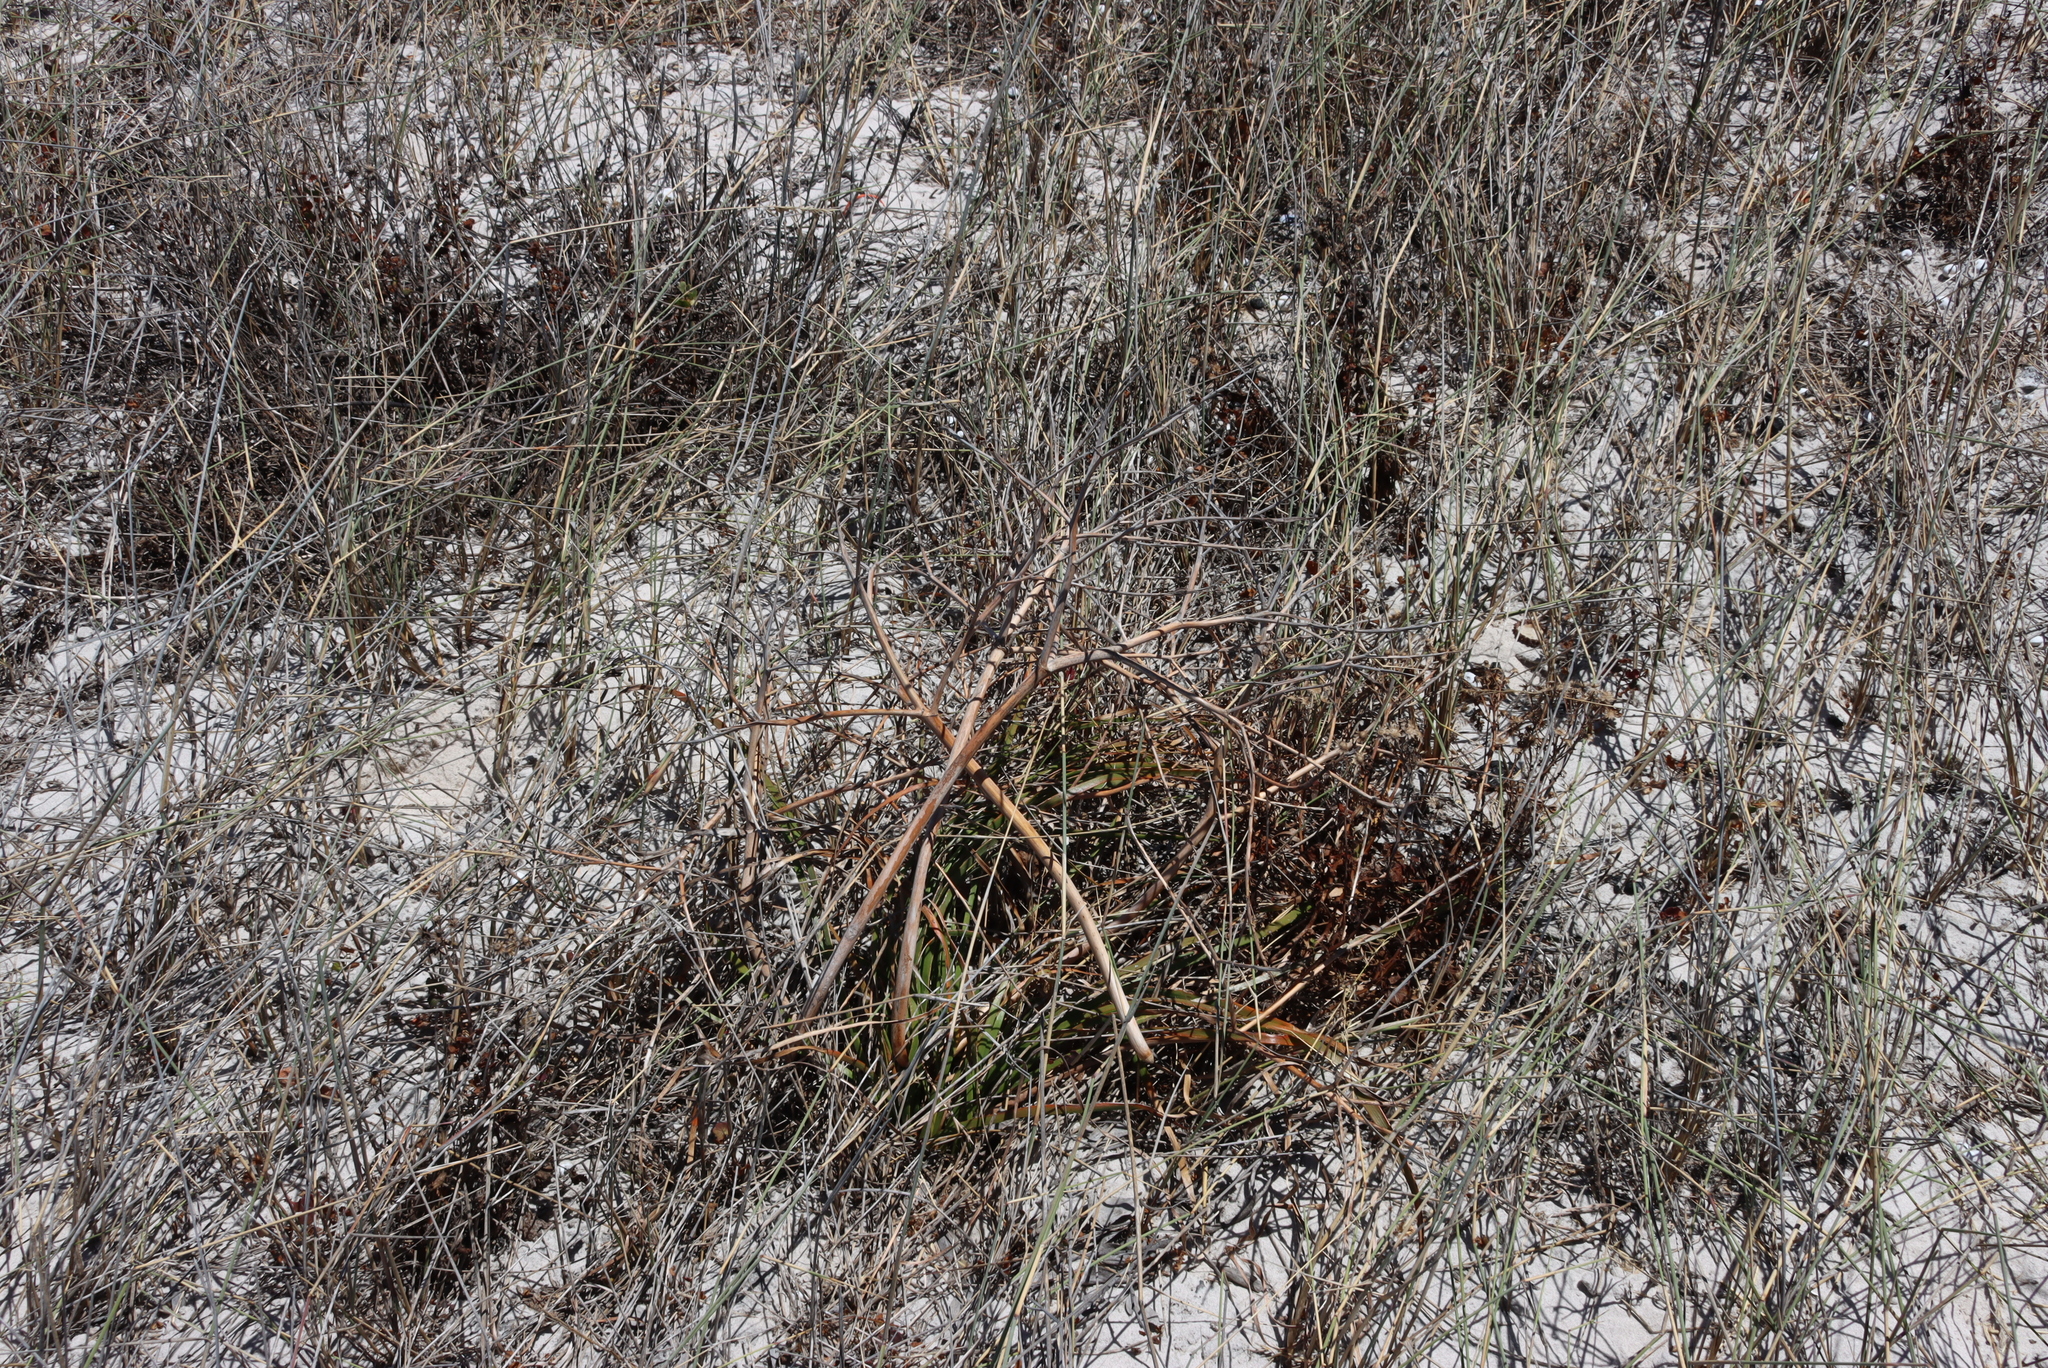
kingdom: Plantae
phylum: Tracheophyta
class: Liliopsida
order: Asparagales
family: Asphodelaceae
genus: Trachyandra
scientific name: Trachyandra divaricata
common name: Dune onionweed
